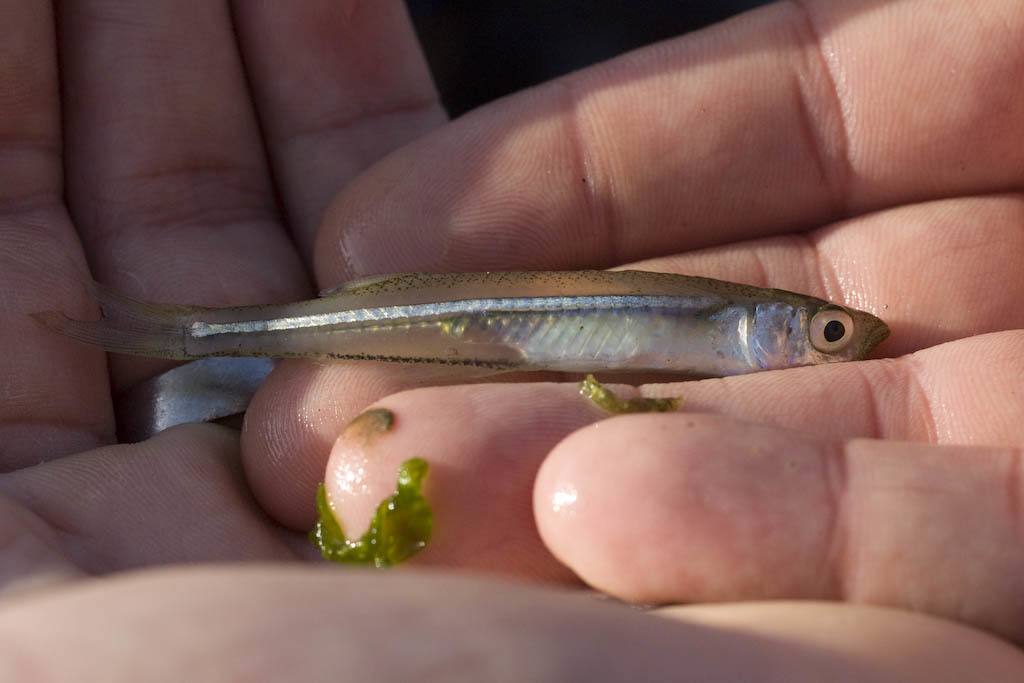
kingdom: Animalia
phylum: Chordata
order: Atheriniformes
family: Atherinopsidae
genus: Menidia
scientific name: Menidia beryllina
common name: Inland silverside
